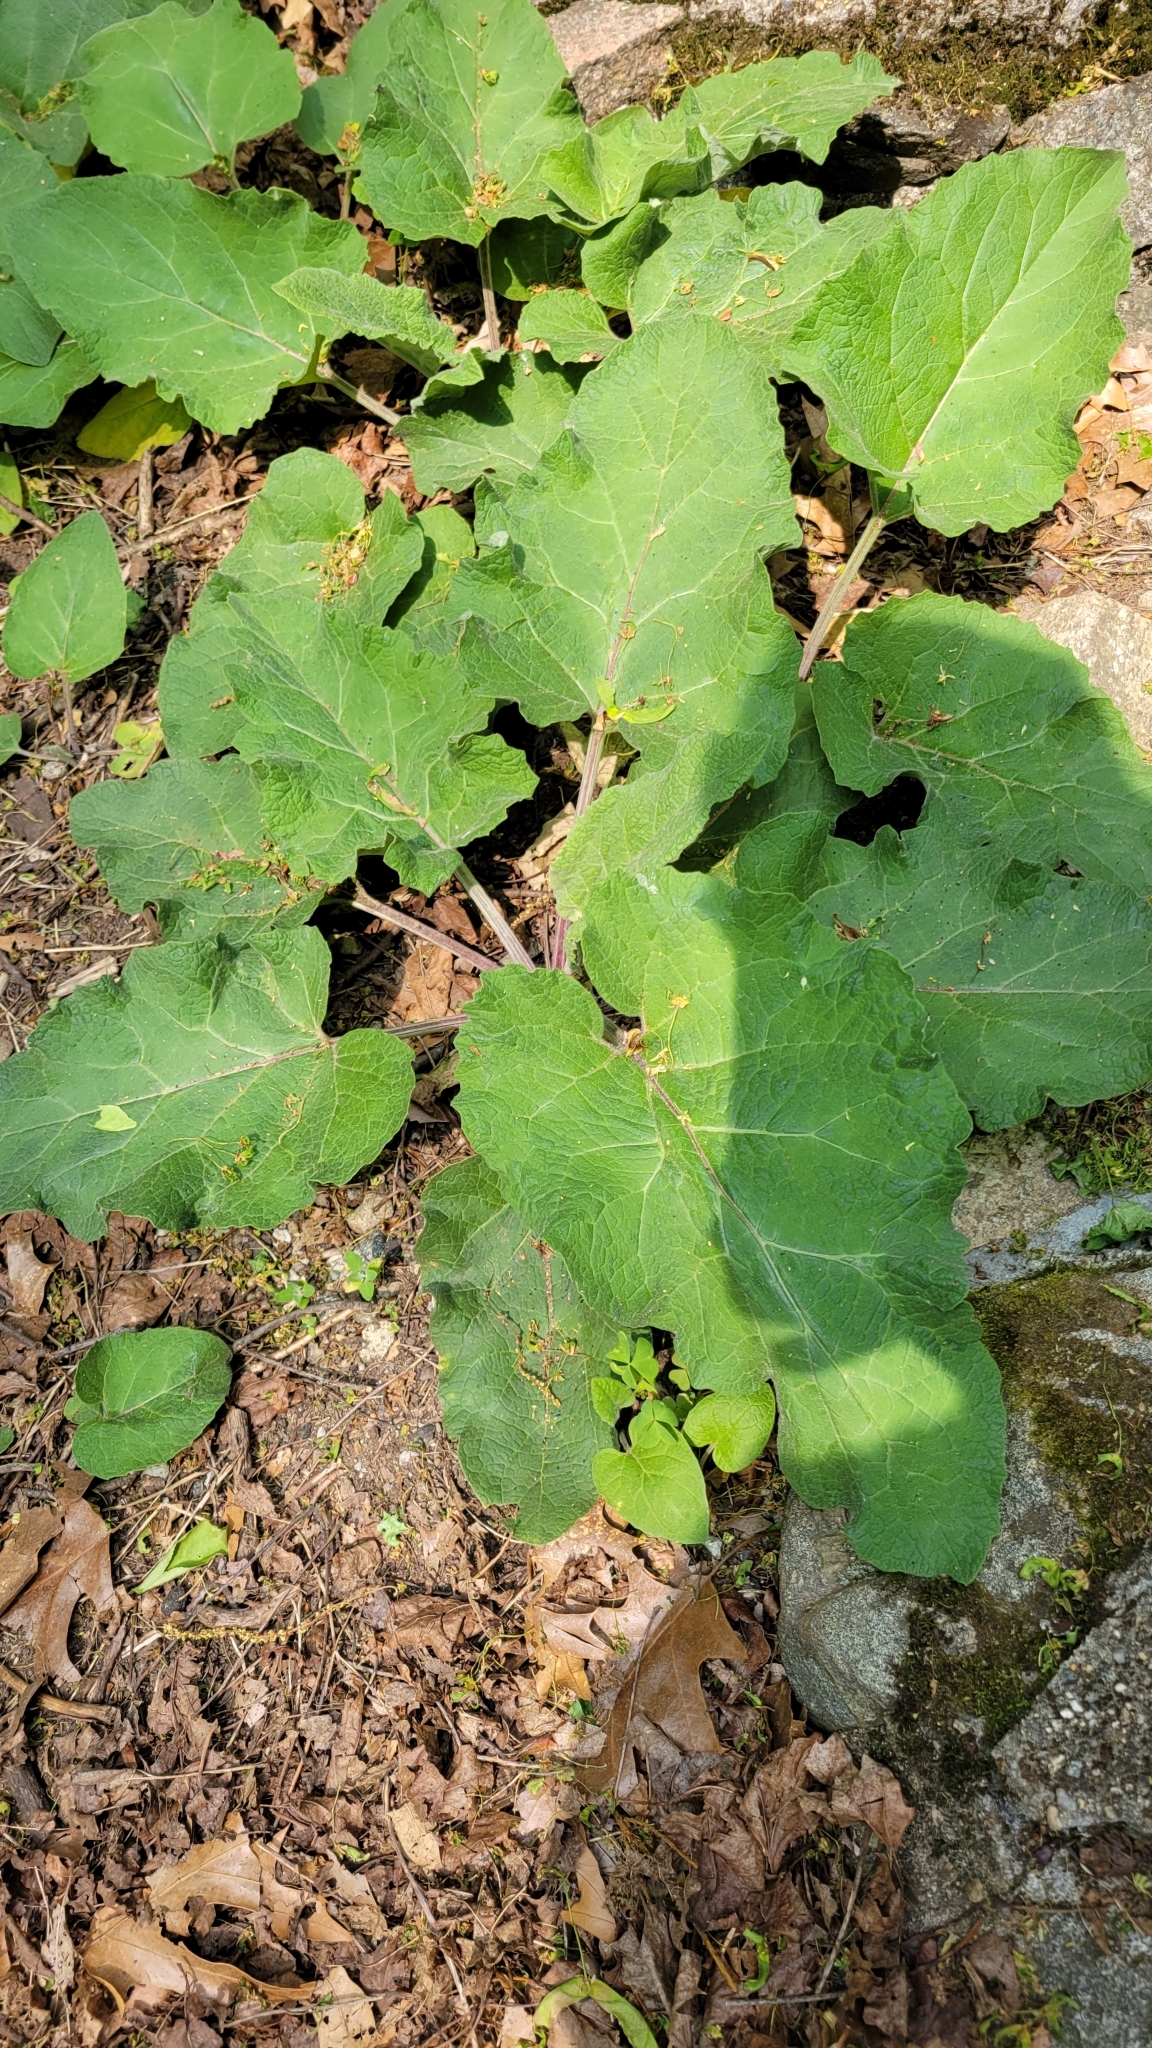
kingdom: Plantae
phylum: Tracheophyta
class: Magnoliopsida
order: Asterales
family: Asteraceae
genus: Arctium
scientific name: Arctium
